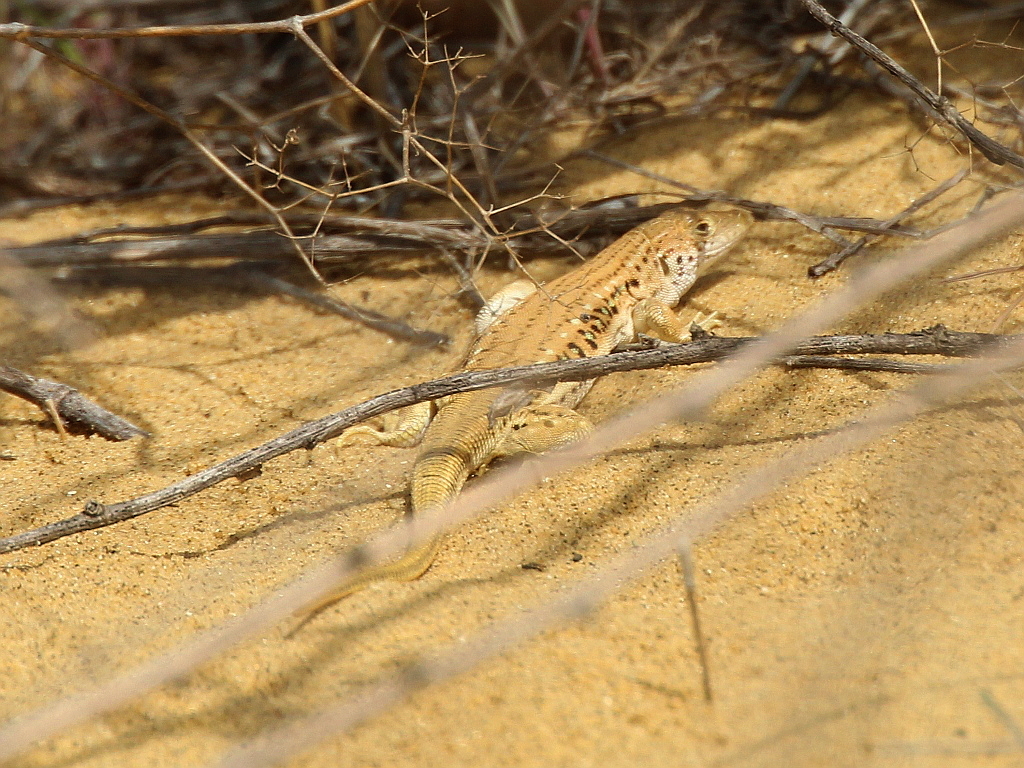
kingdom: Animalia
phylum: Chordata
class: Squamata
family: Lacertidae
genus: Eremias
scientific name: Eremias velox
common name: Central asian racerunner
